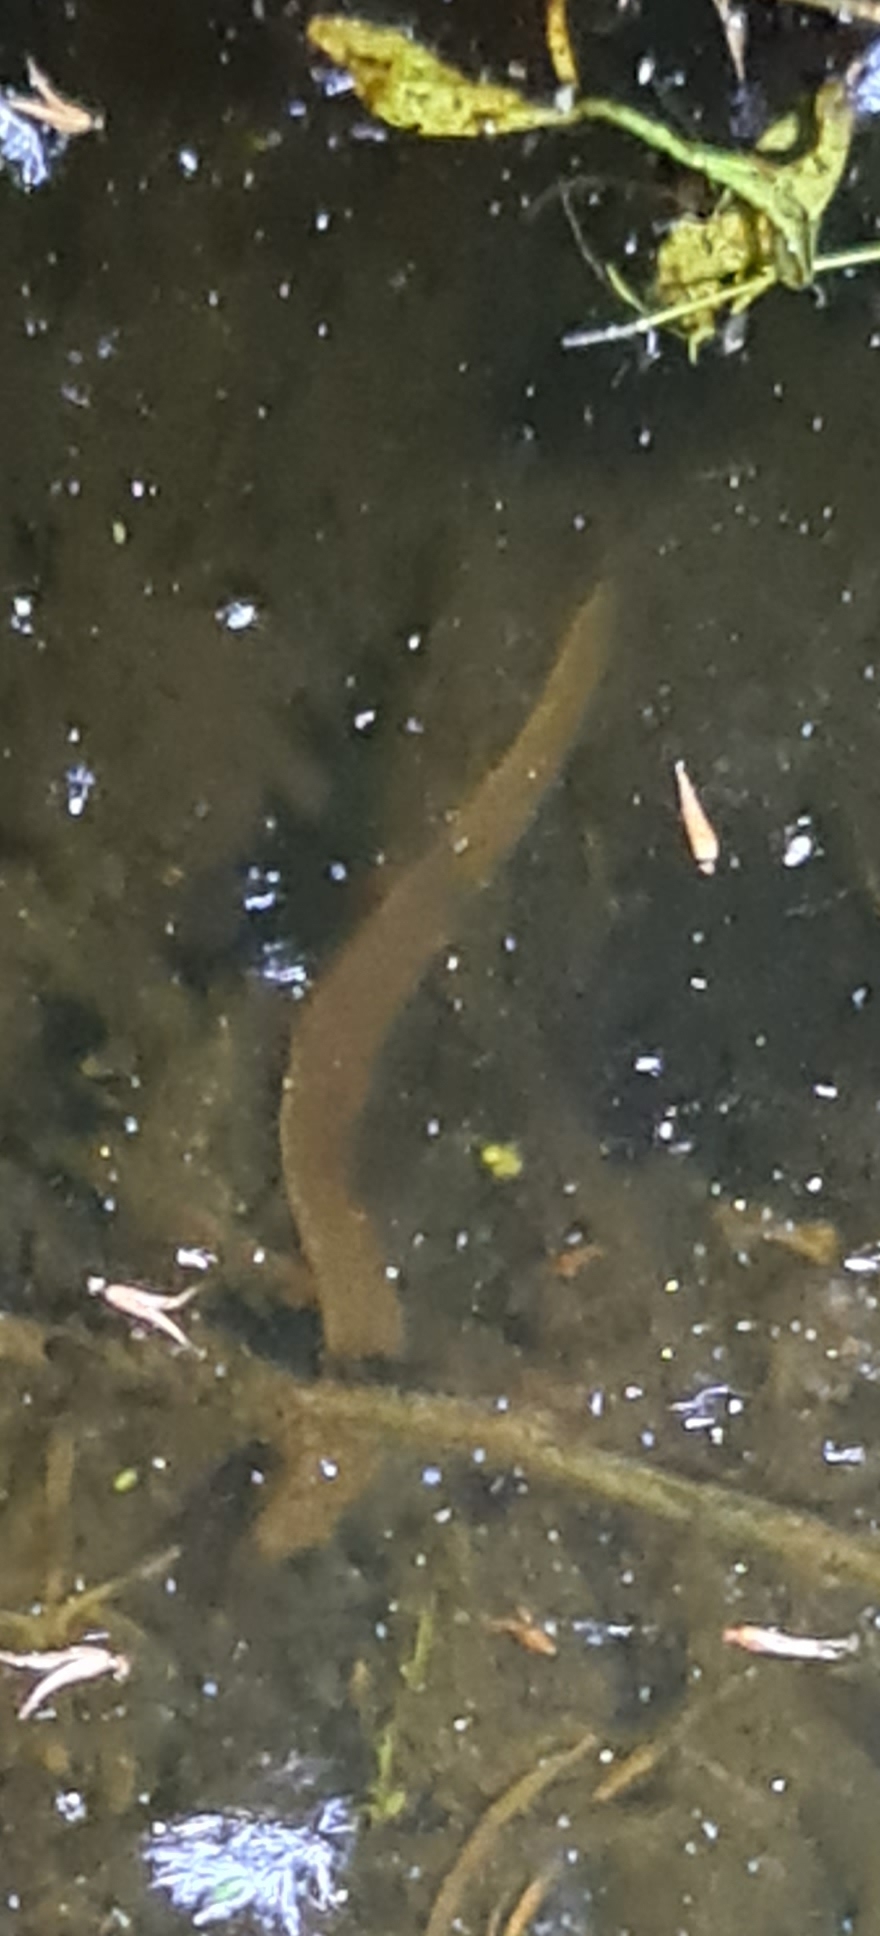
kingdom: Animalia
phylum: Annelida
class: Clitellata
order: Arhynchobdellida
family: Haemopidae
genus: Haemopis
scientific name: Haemopis sanguisuga
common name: Horse leech
